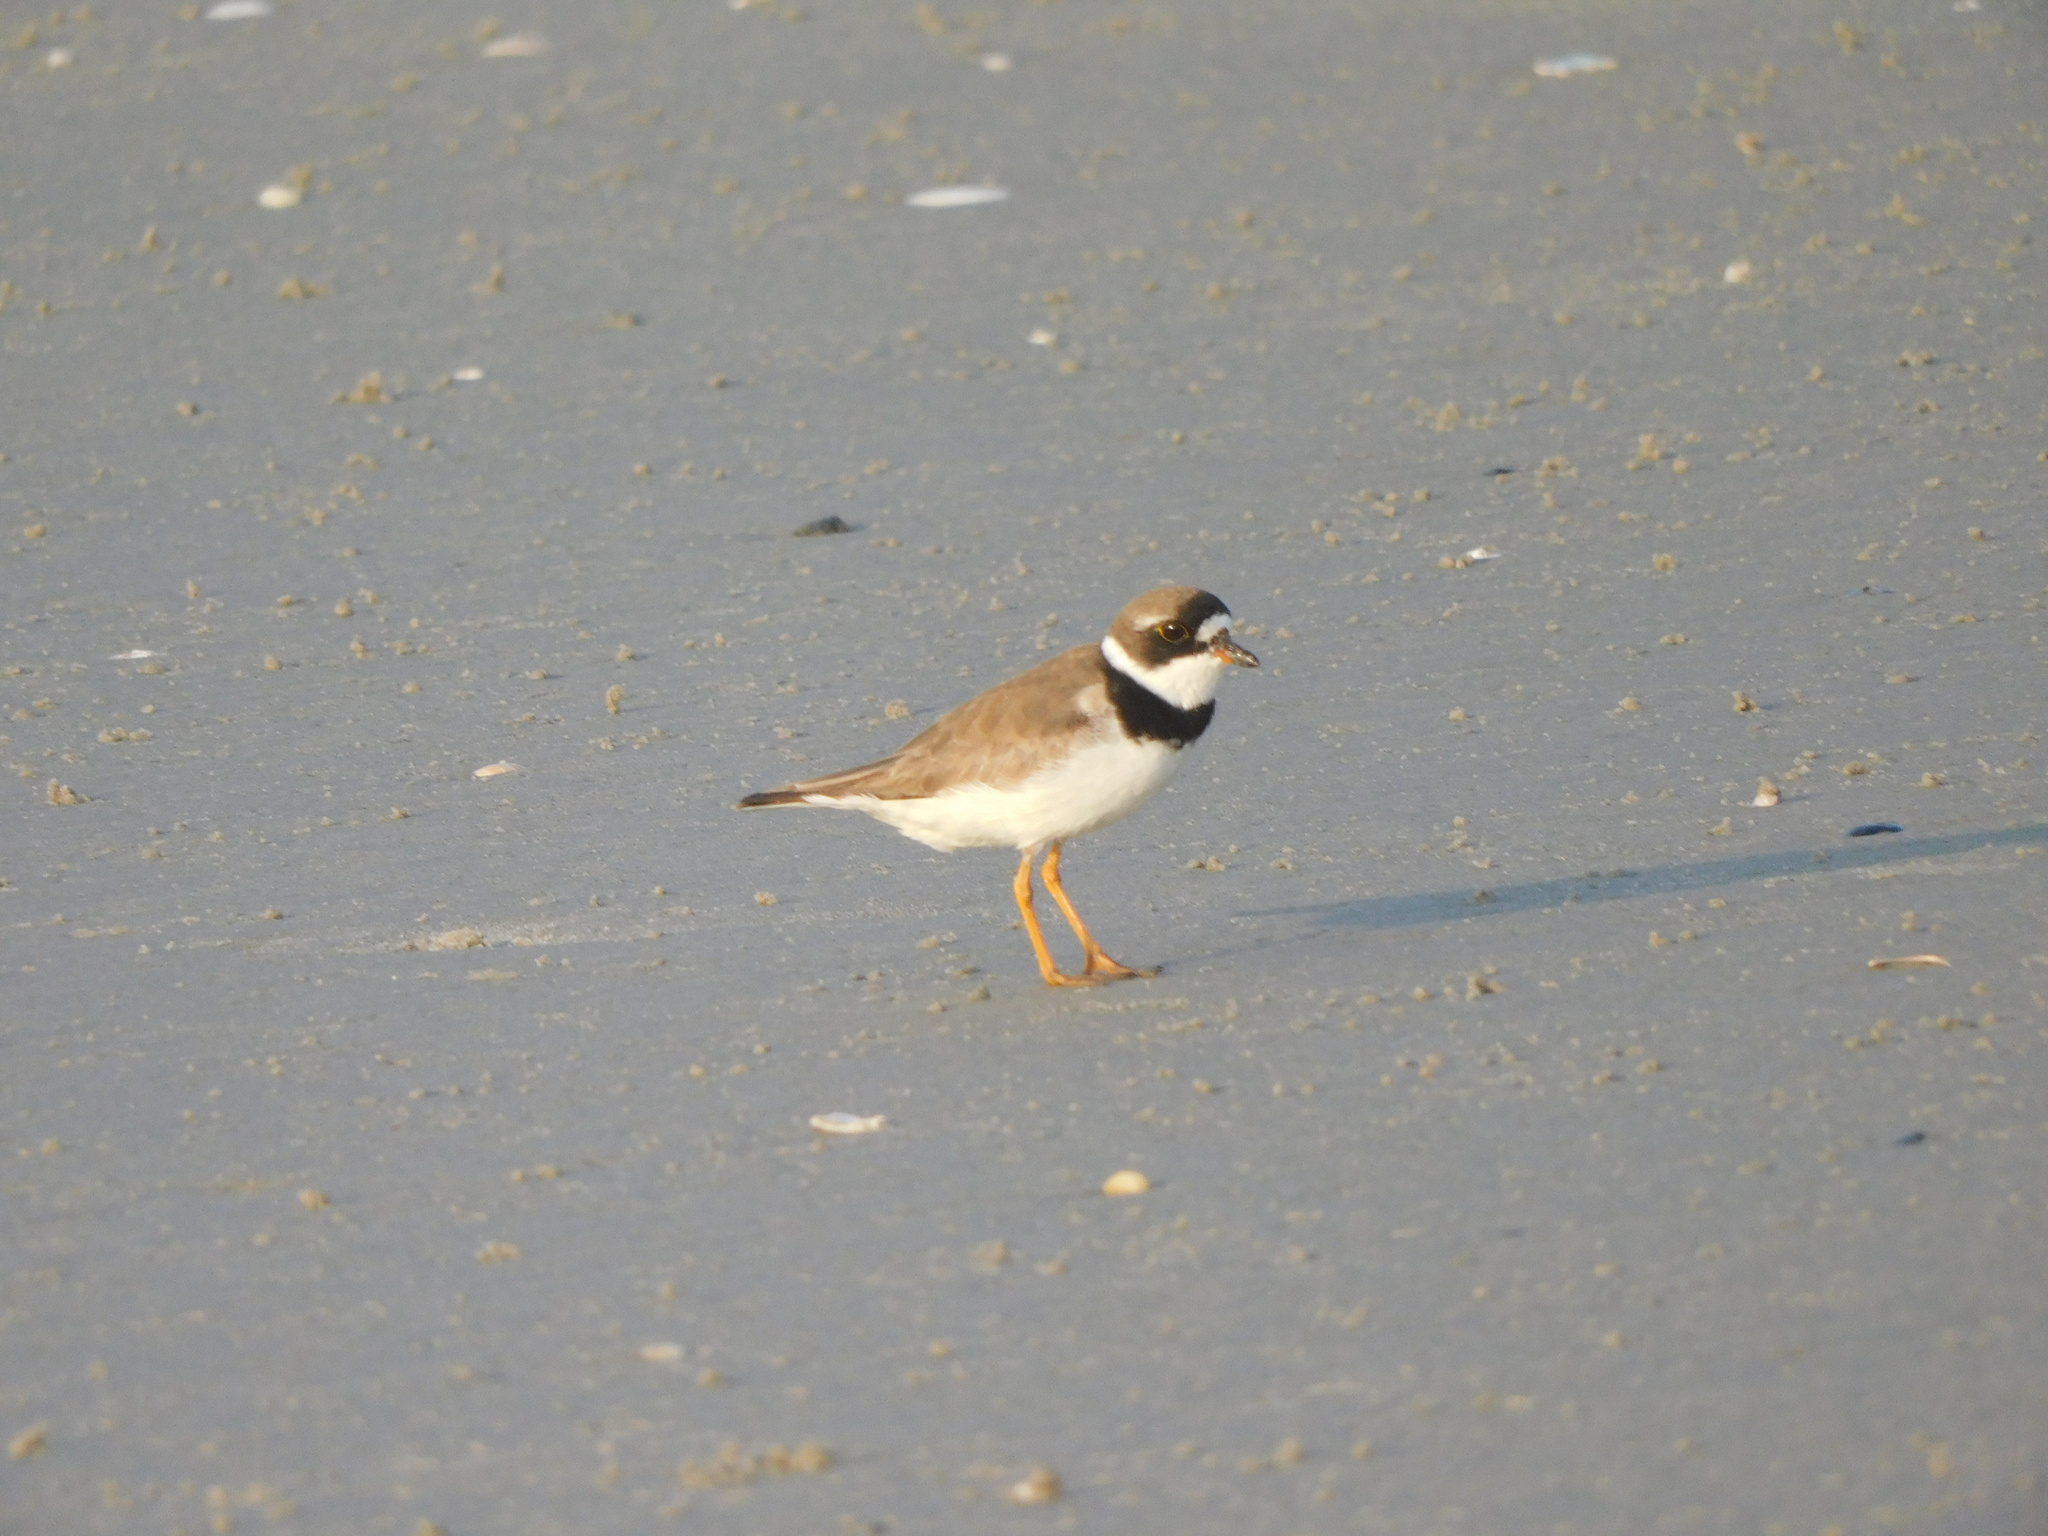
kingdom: Animalia
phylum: Chordata
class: Aves
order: Charadriiformes
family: Charadriidae
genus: Charadrius
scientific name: Charadrius semipalmatus
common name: Semipalmated plover
